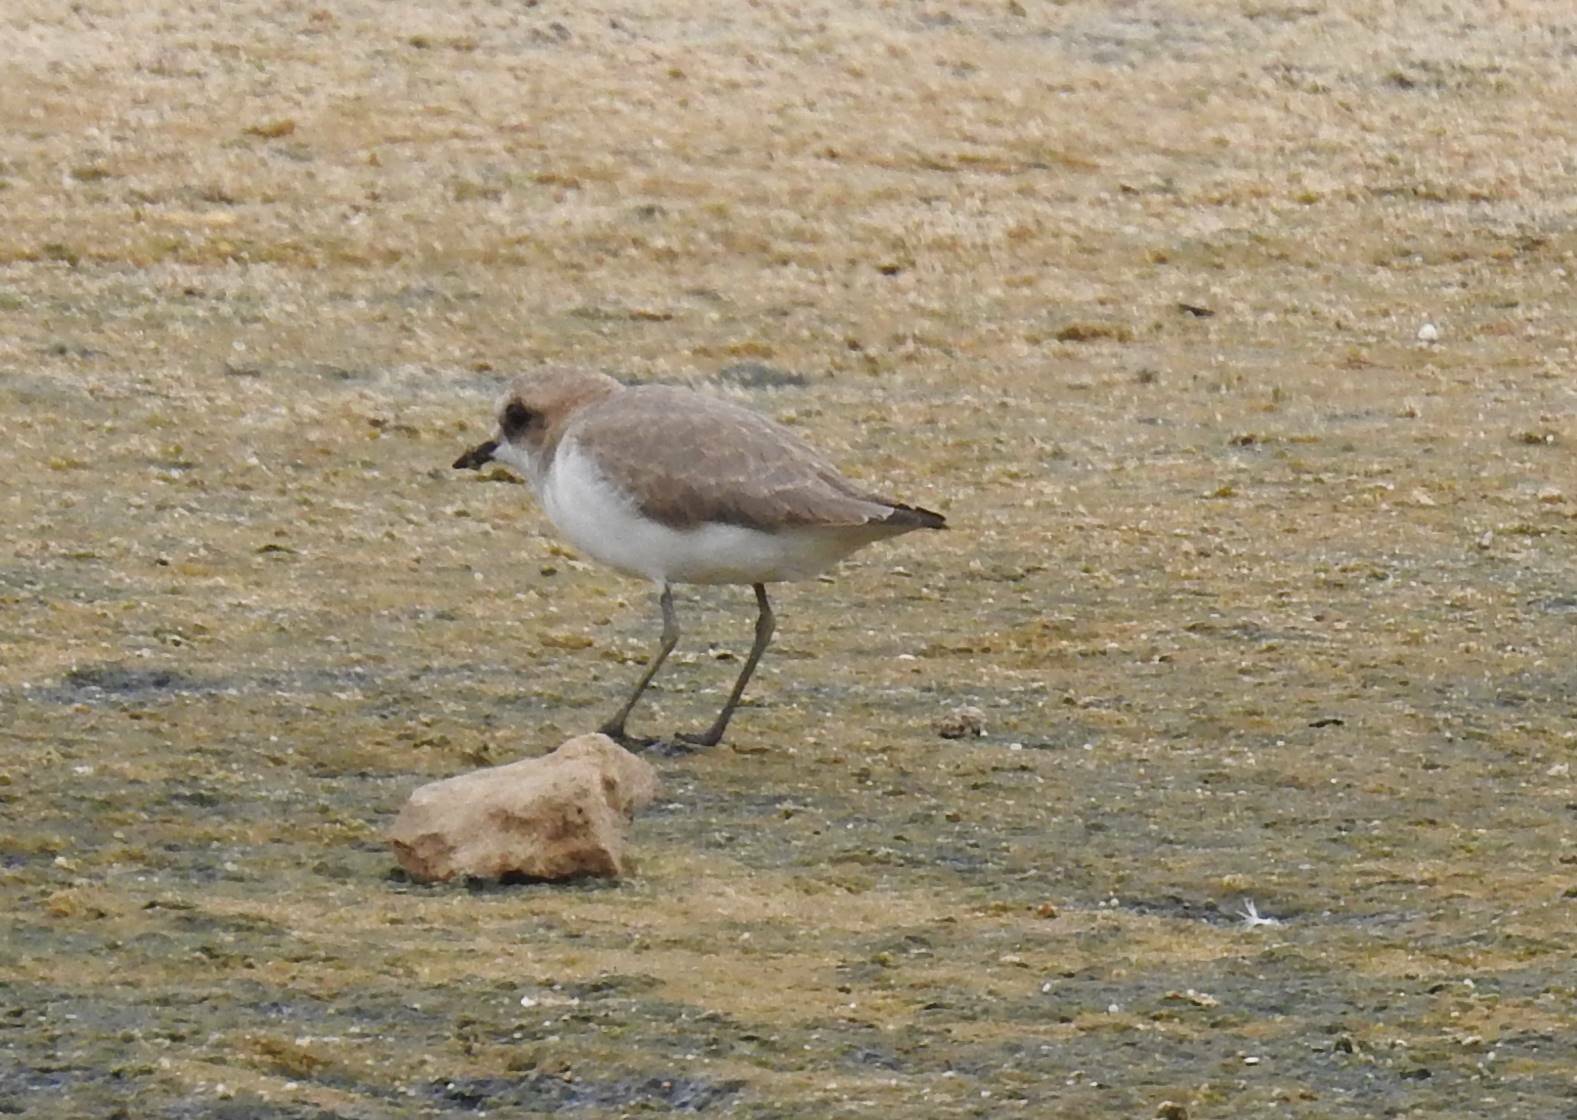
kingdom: Animalia
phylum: Chordata
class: Aves
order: Charadriiformes
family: Charadriidae
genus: Charadrius
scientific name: Charadrius alexandrinus
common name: Kentish plover
